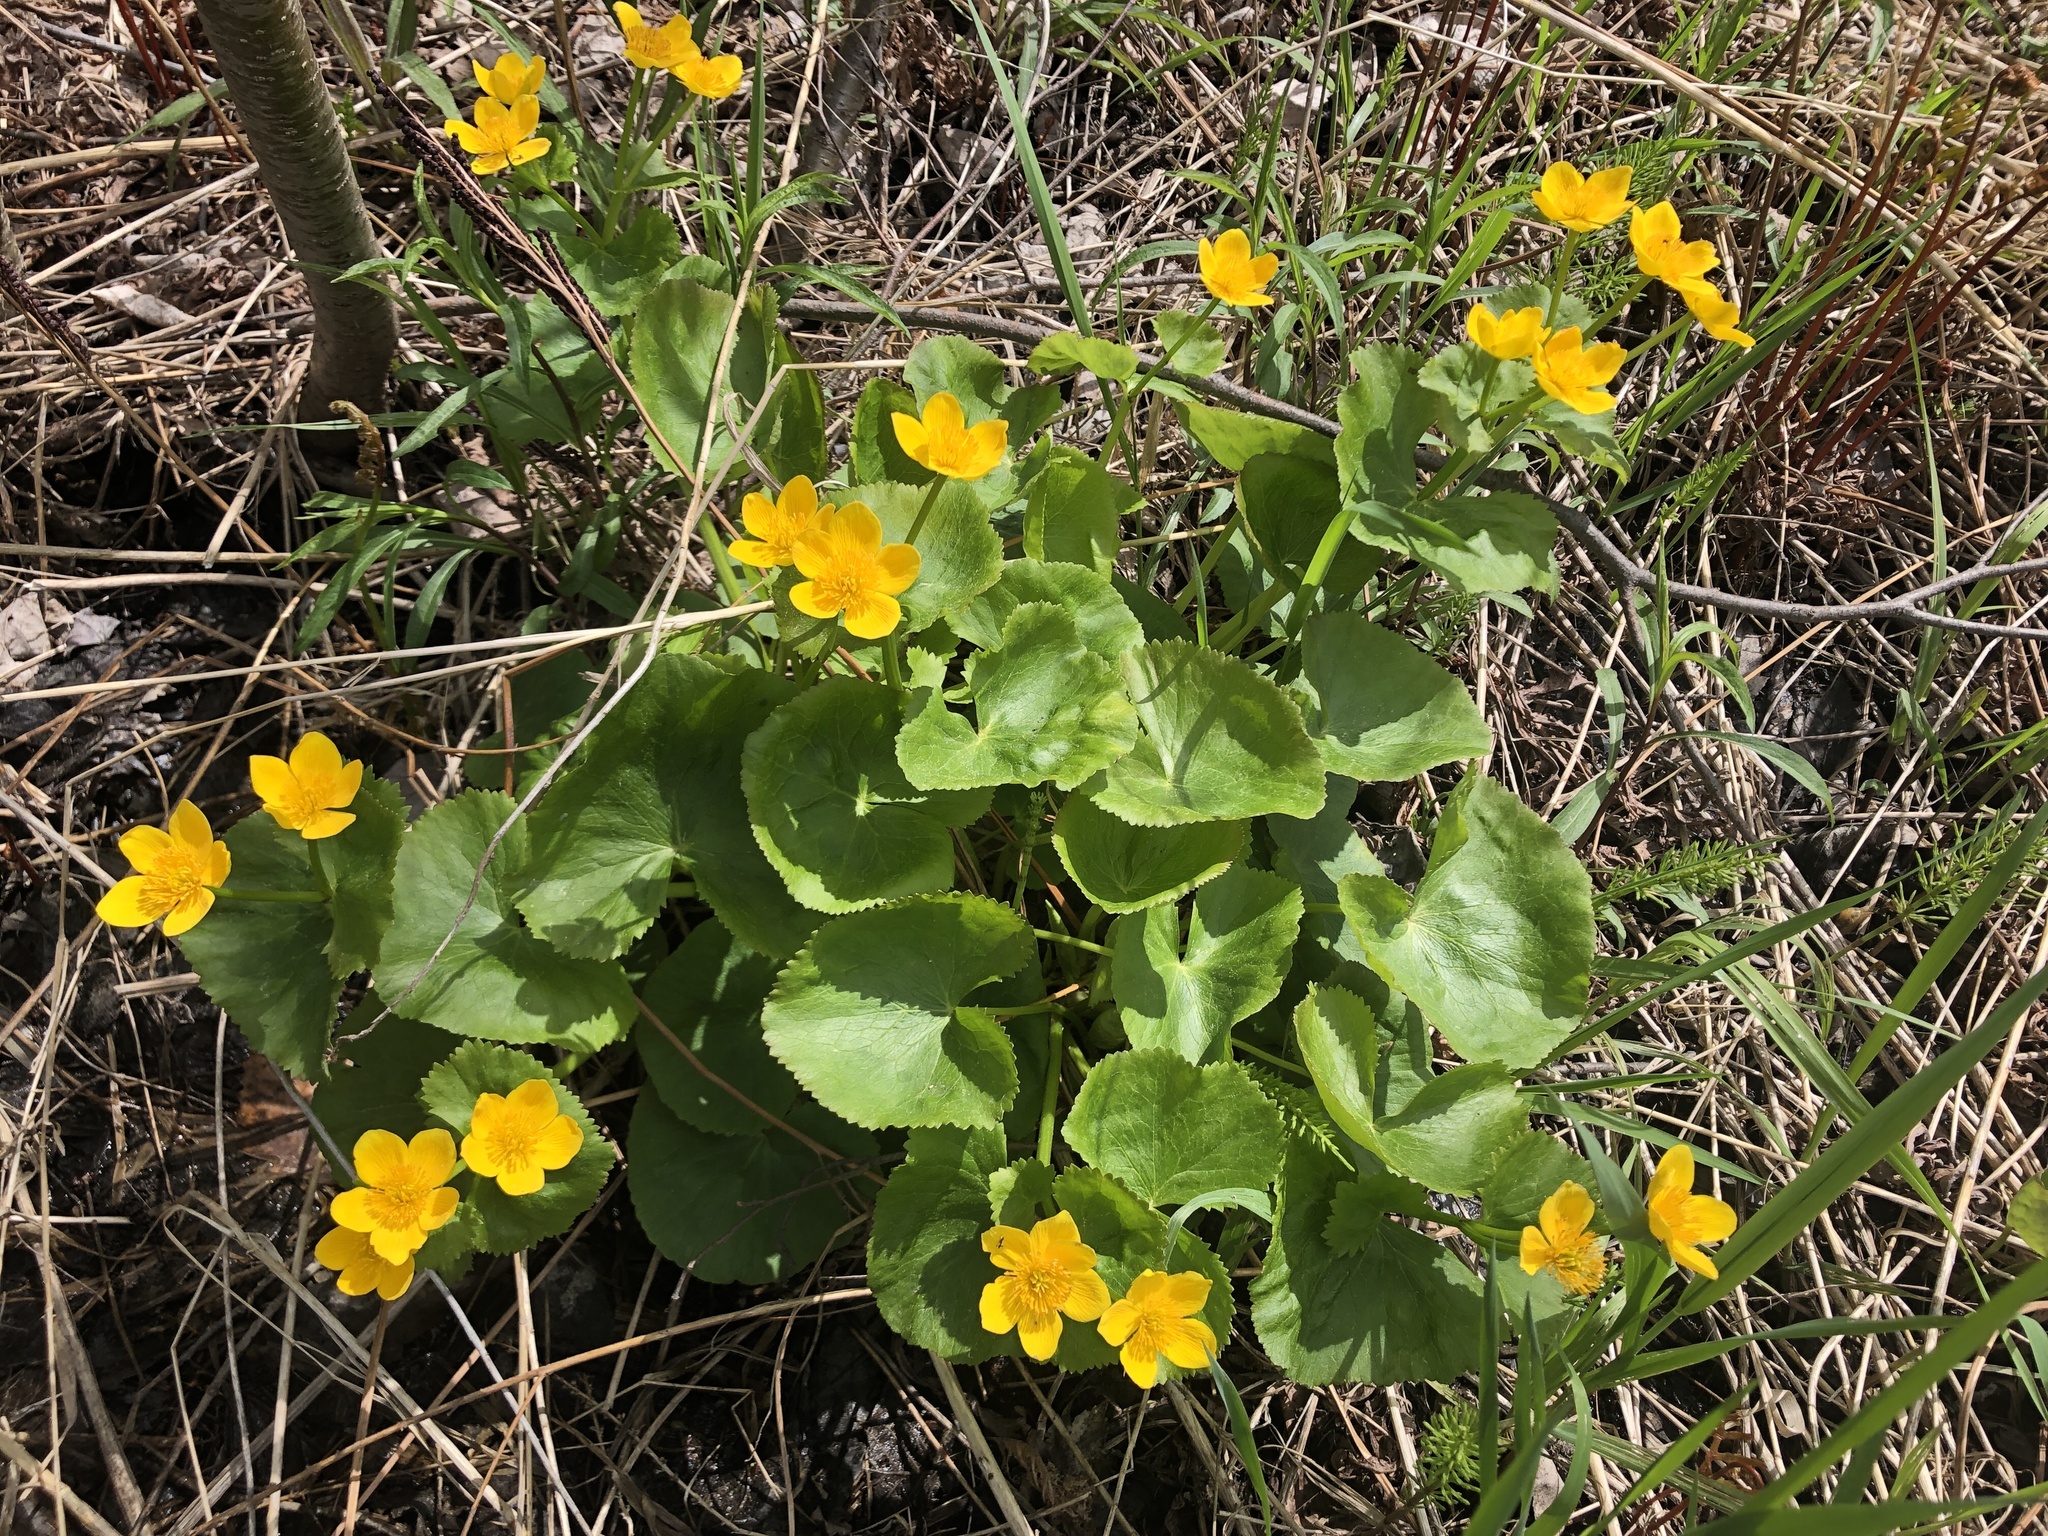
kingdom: Plantae
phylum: Tracheophyta
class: Magnoliopsida
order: Ranunculales
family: Ranunculaceae
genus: Caltha
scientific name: Caltha palustris
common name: Marsh marigold
